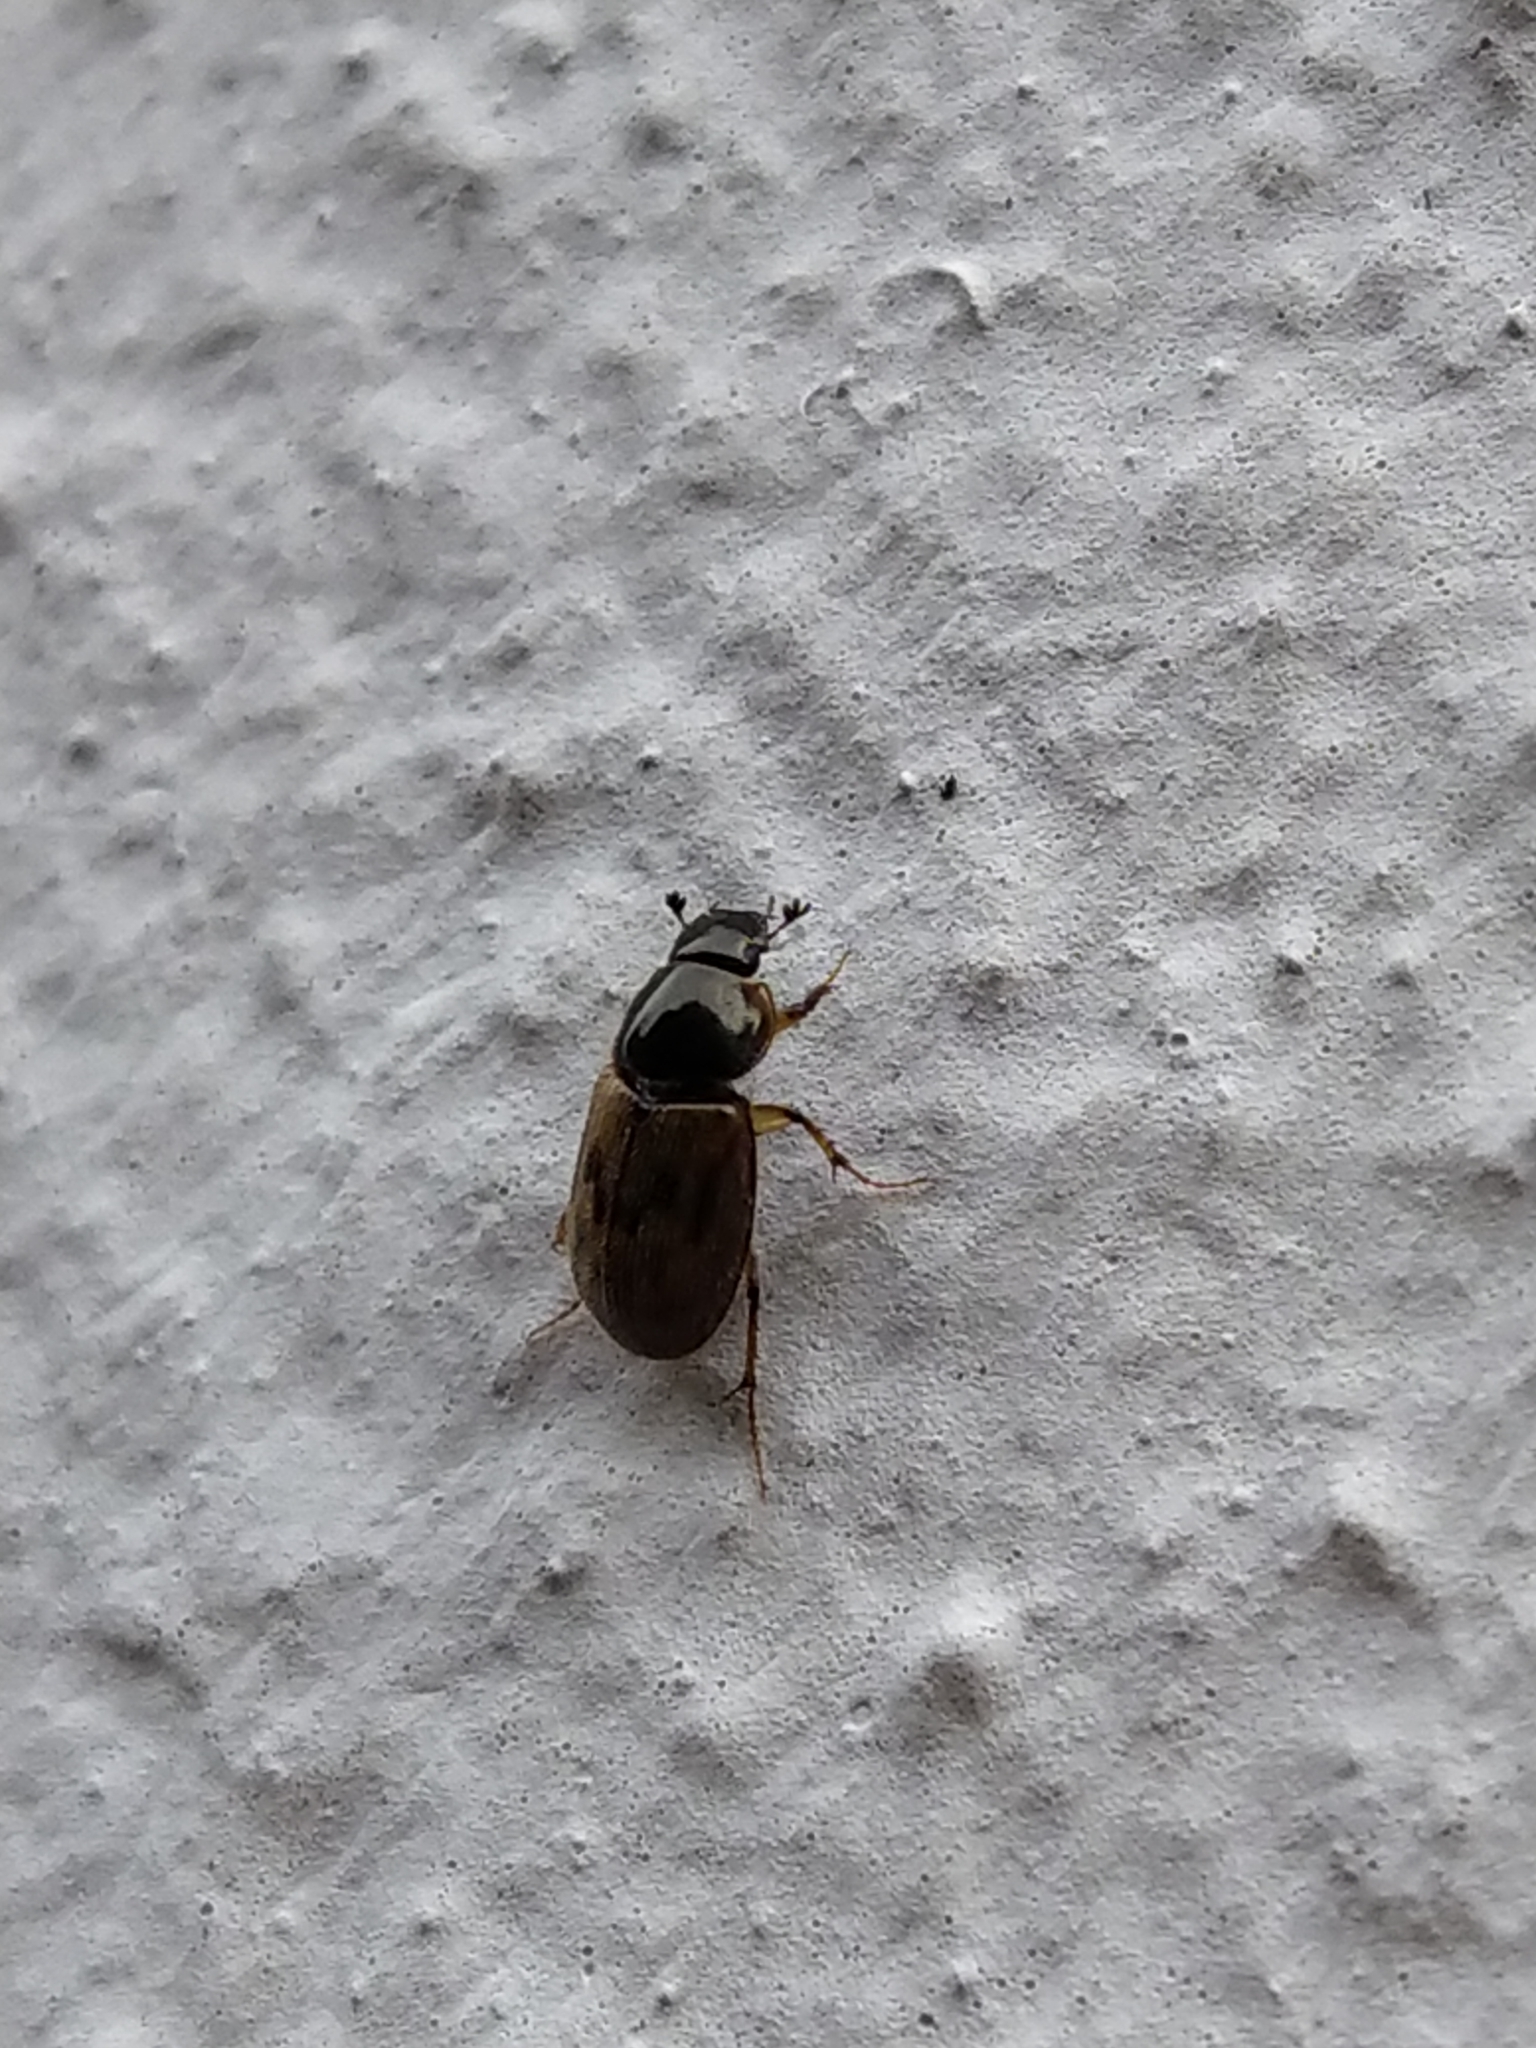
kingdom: Animalia
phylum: Arthropoda
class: Insecta
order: Coleoptera
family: Scarabaeidae
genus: Nimbus
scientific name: Nimbus contaminatus
